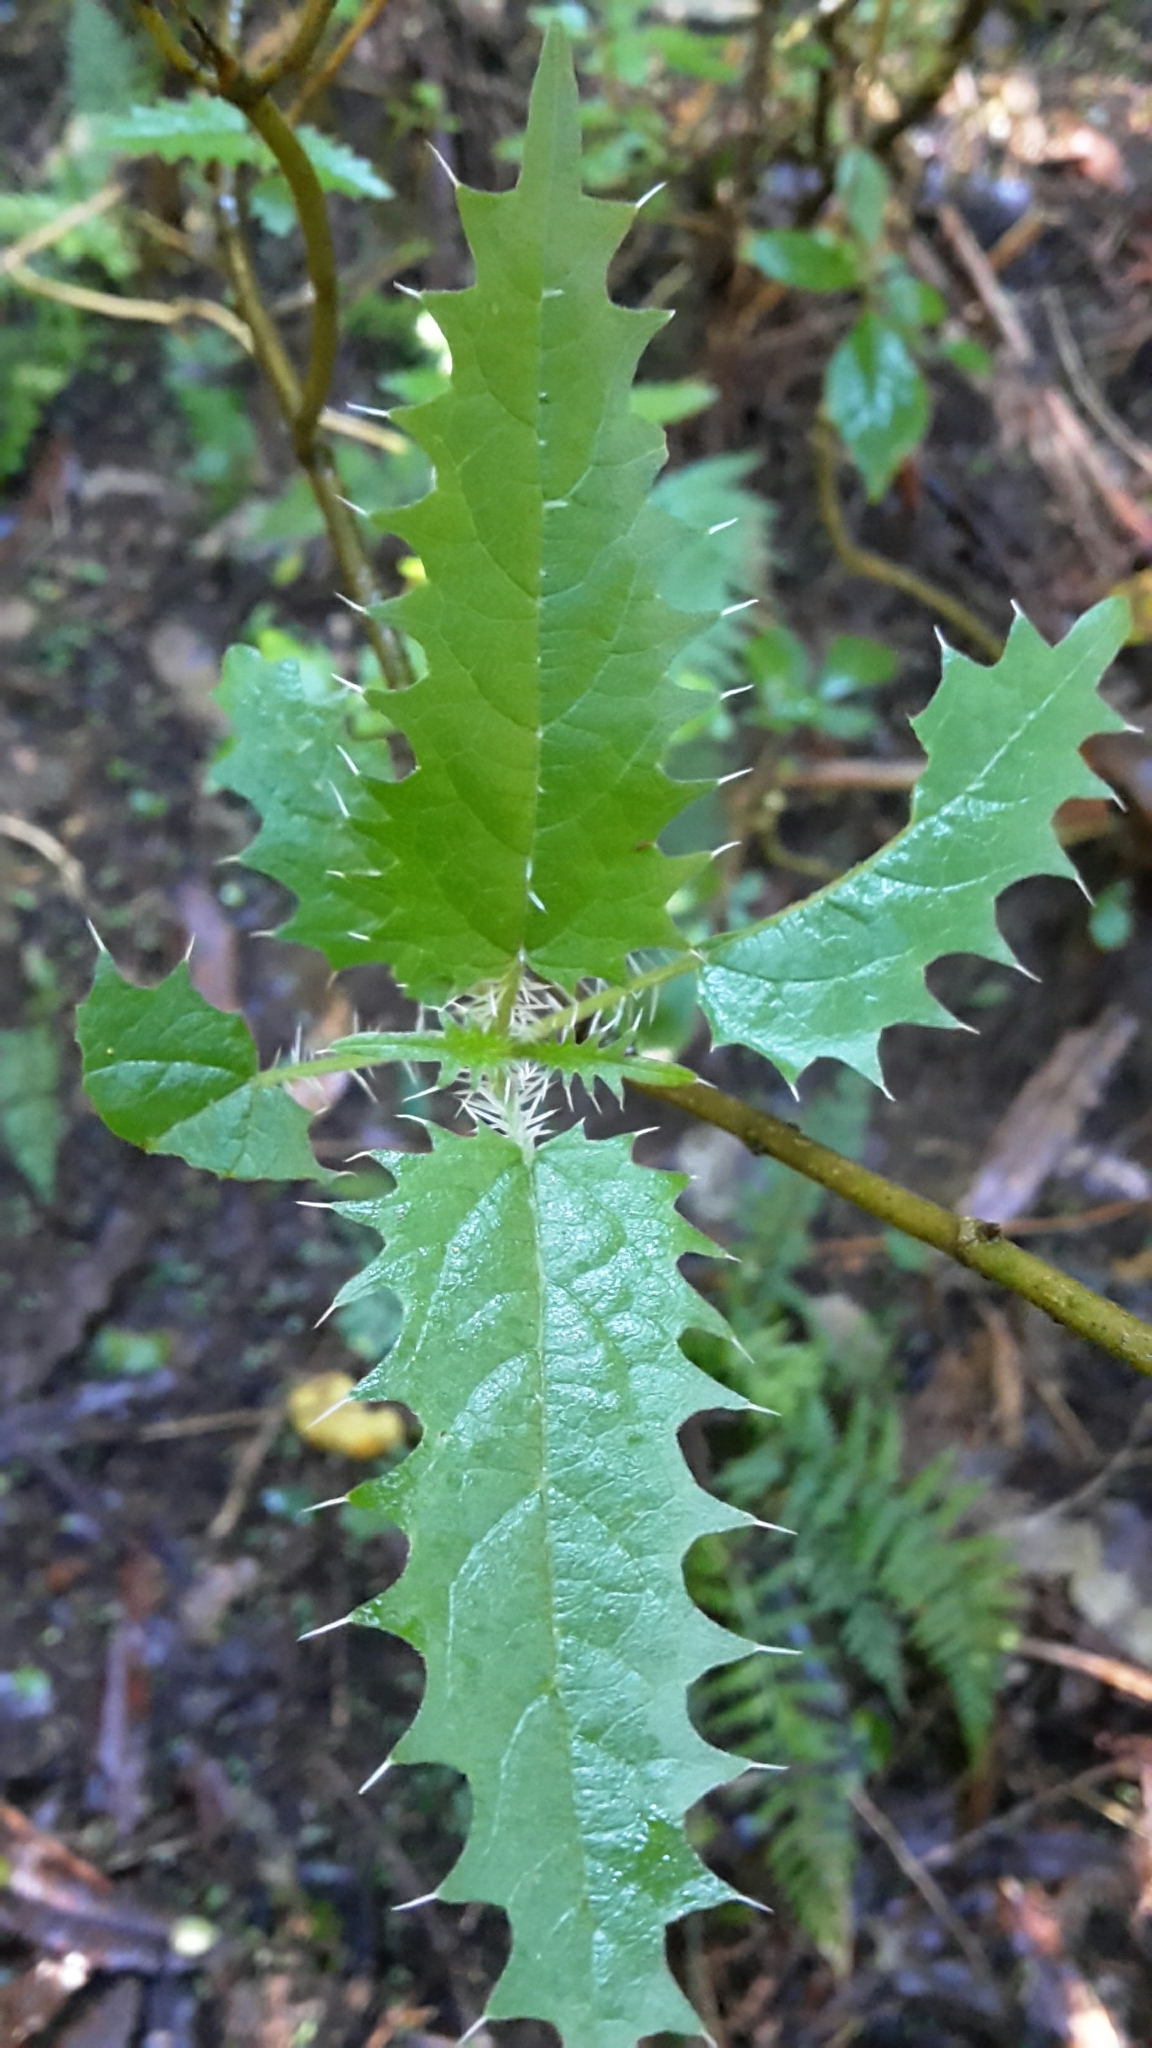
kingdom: Plantae
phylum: Tracheophyta
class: Magnoliopsida
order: Rosales
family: Urticaceae
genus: Urtica
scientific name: Urtica ferox
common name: Tree nettle
